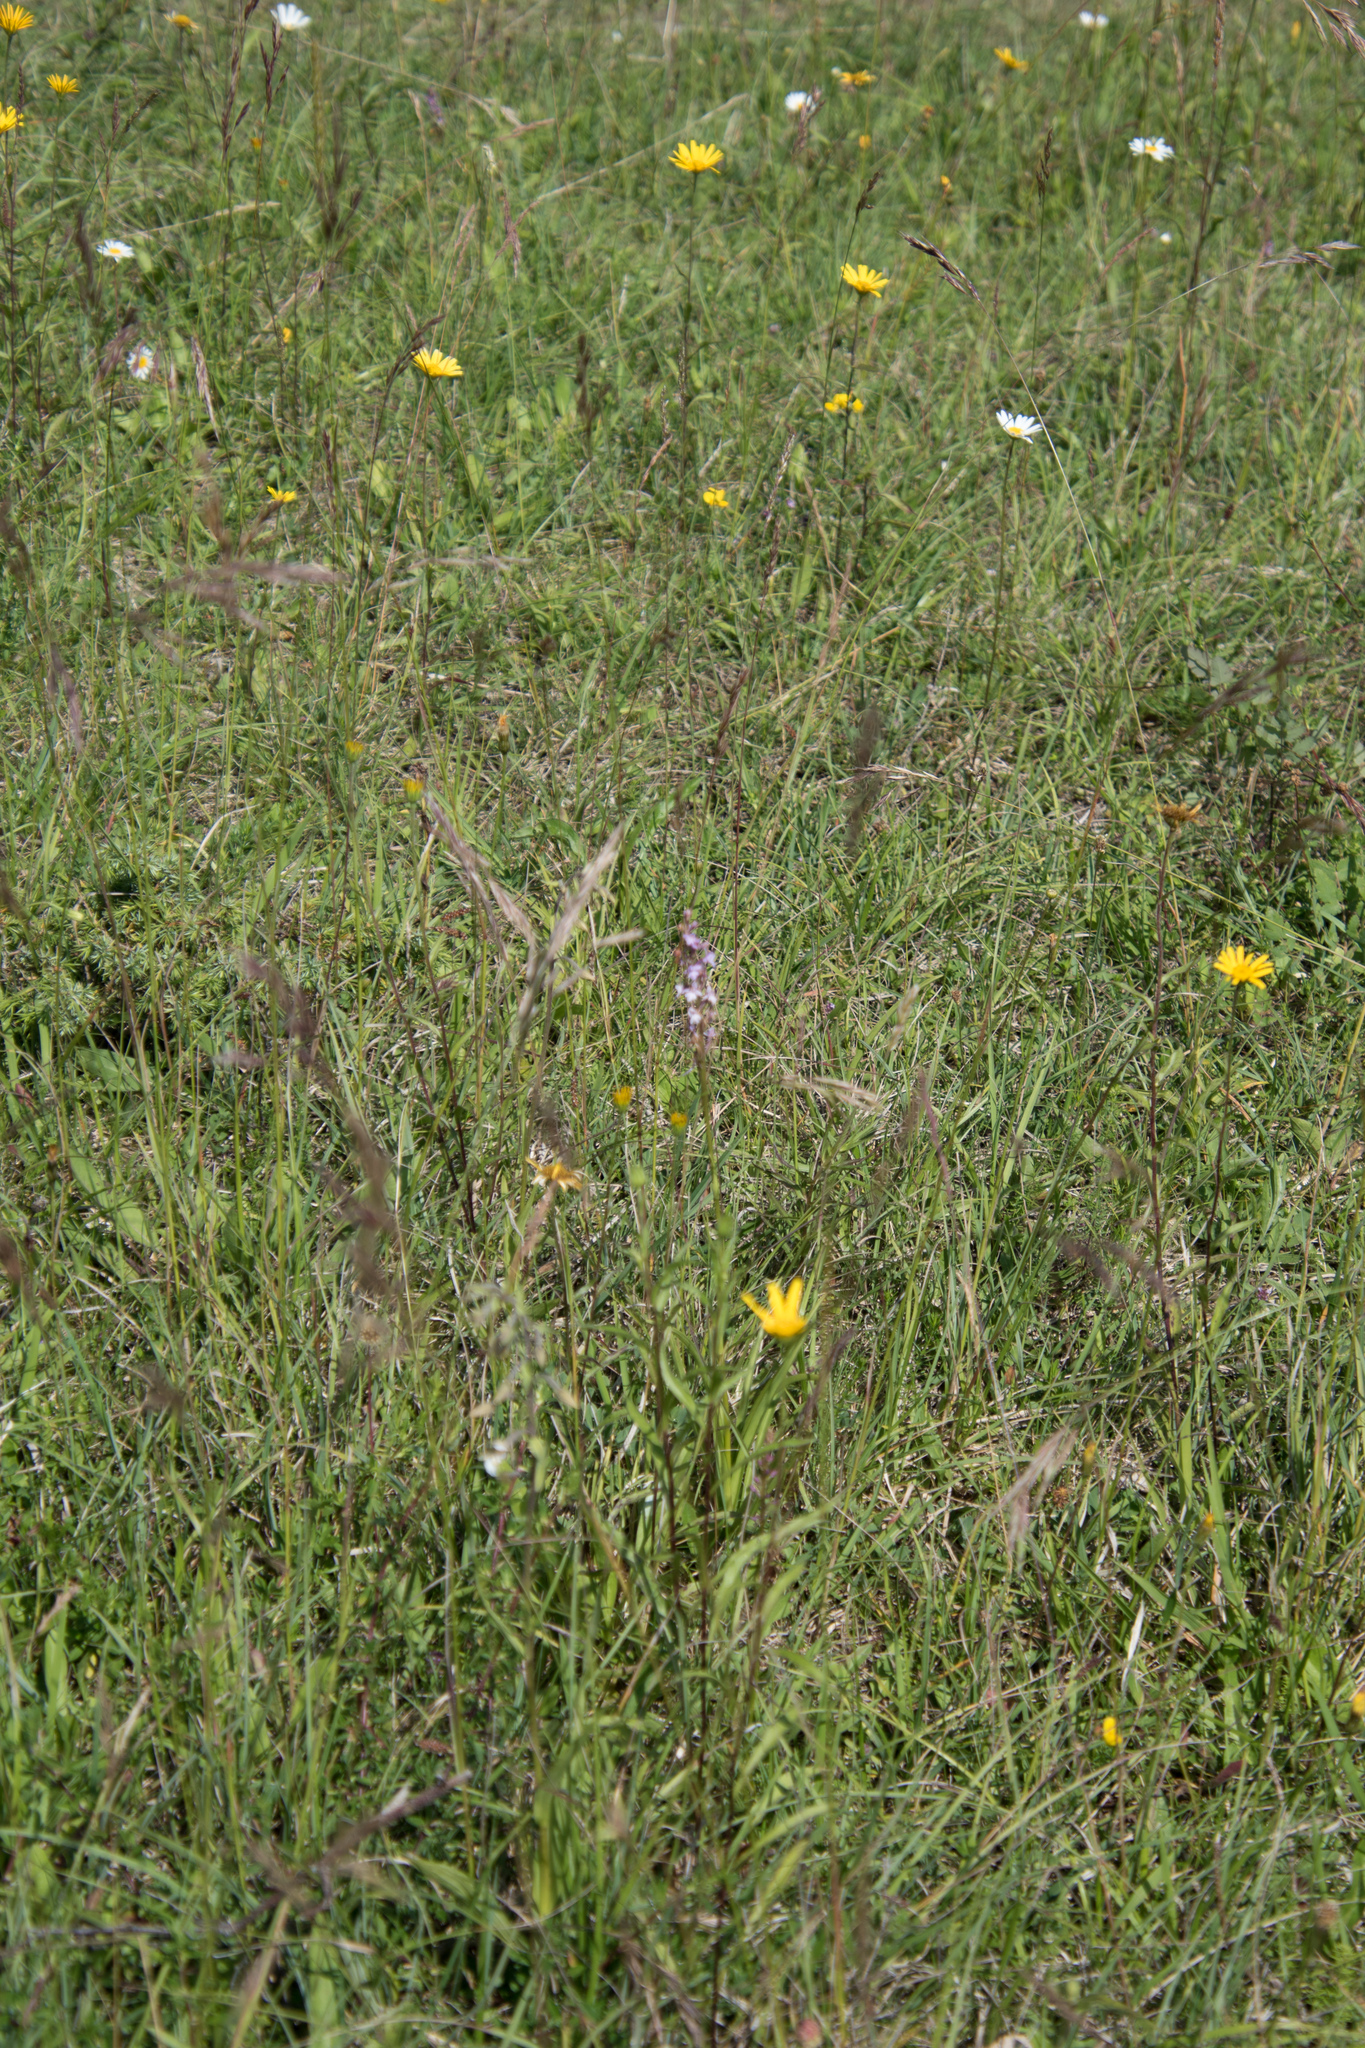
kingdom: Plantae
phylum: Tracheophyta
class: Liliopsida
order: Asparagales
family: Orchidaceae
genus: Gymnadenia
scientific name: Gymnadenia conopsea
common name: Fragrant orchid
